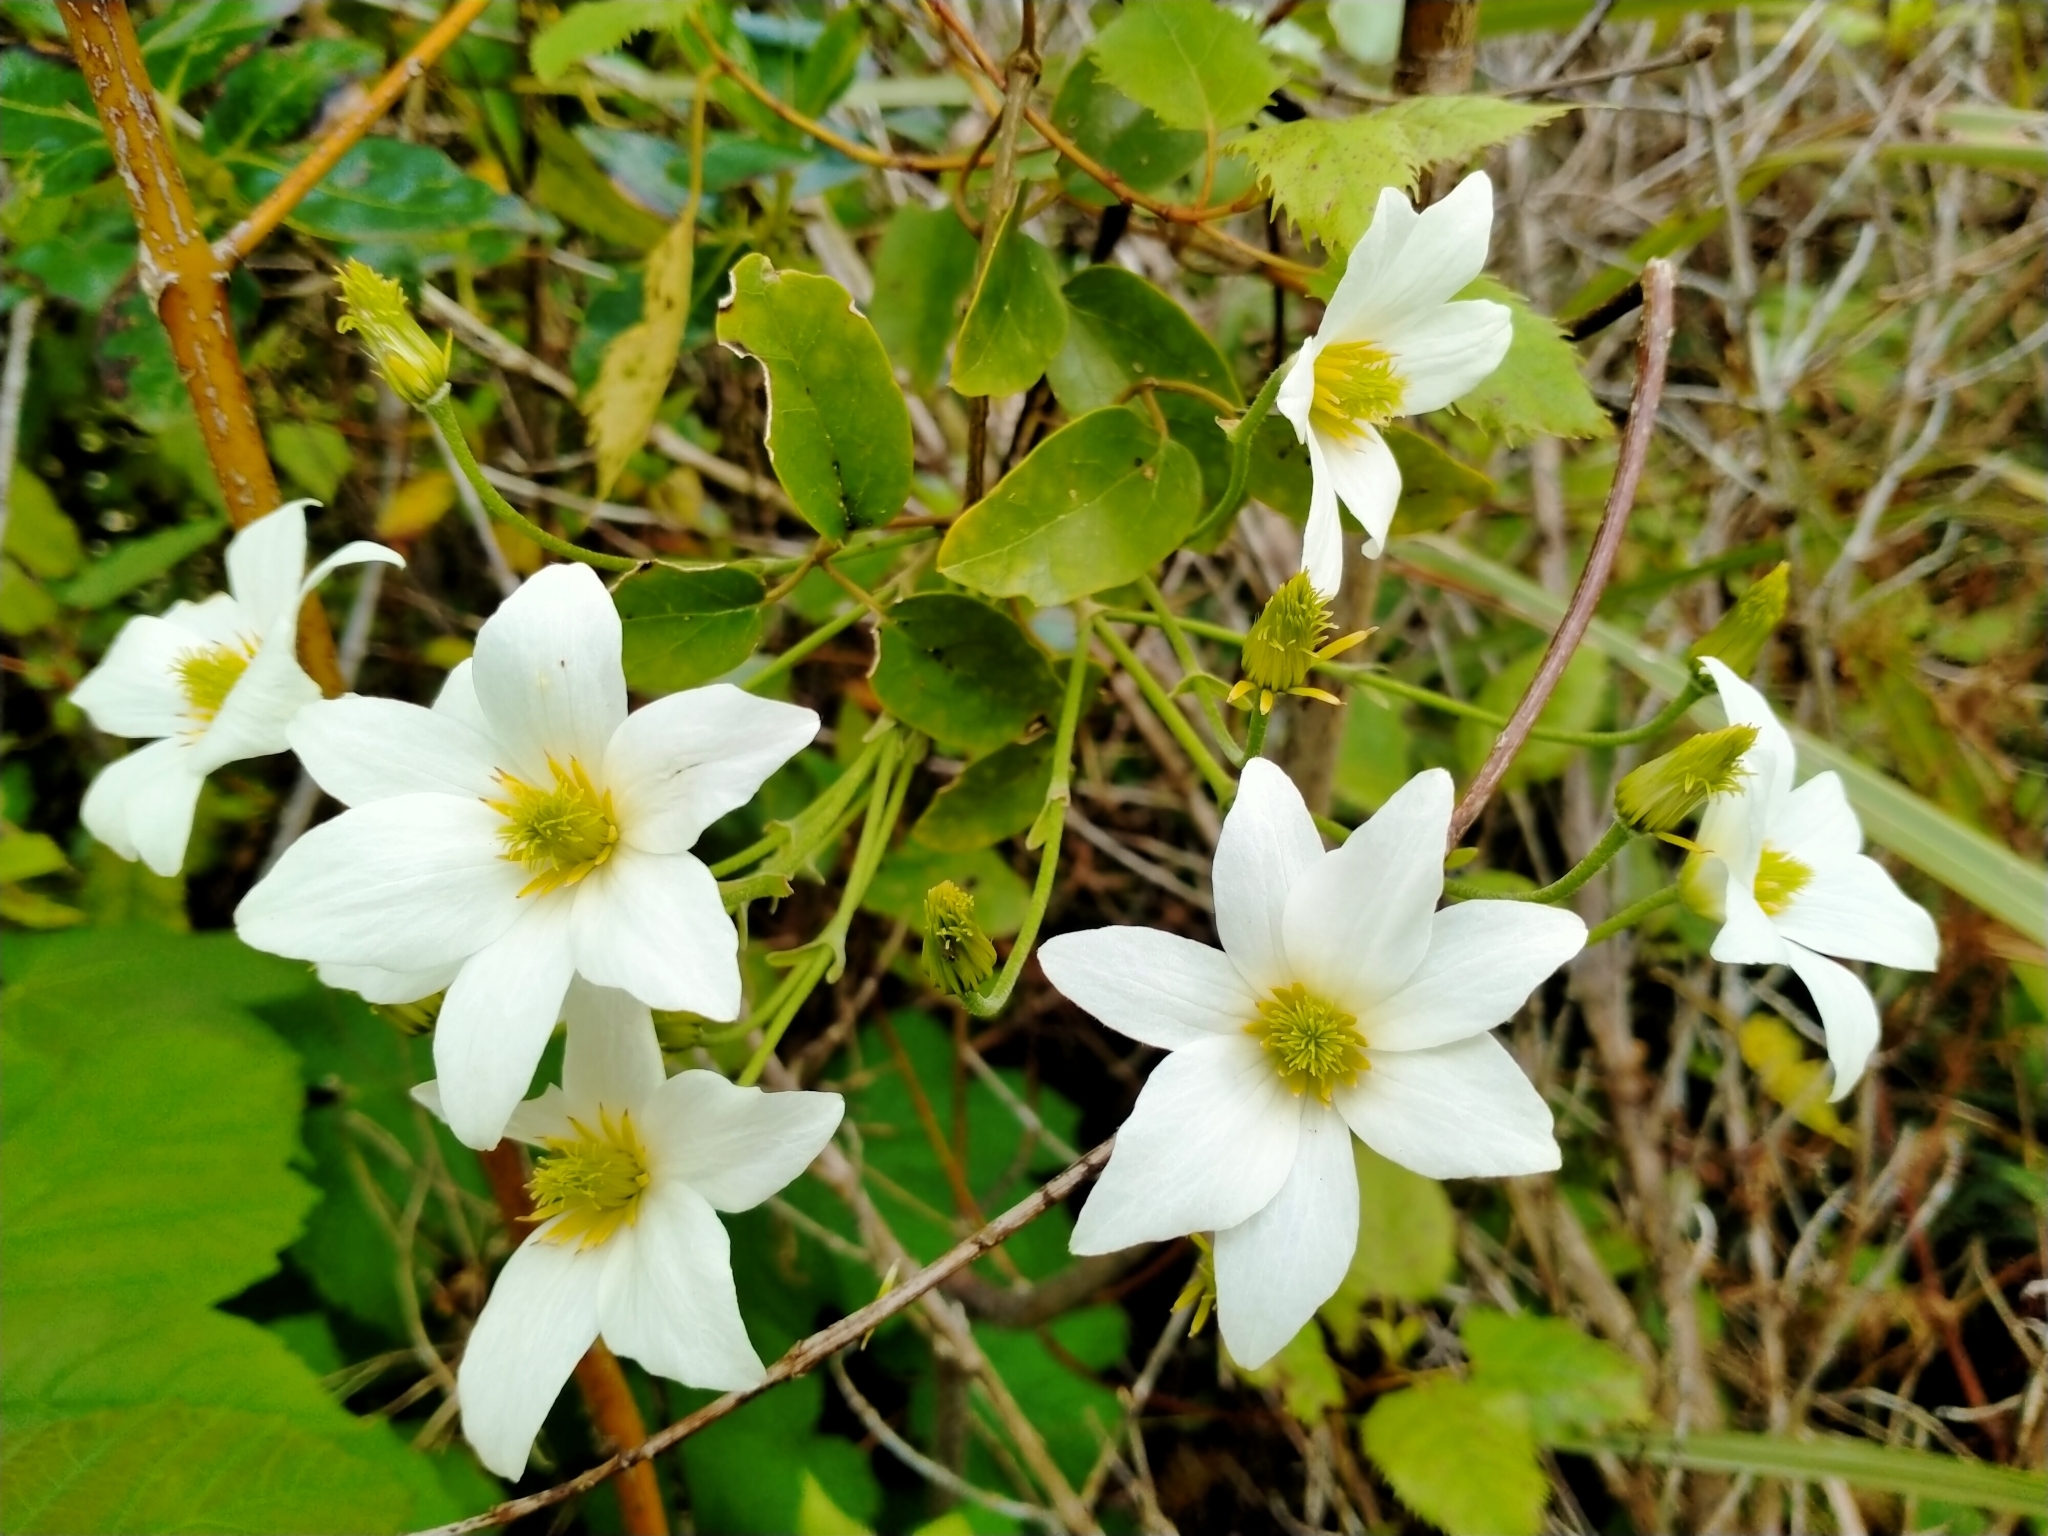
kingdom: Plantae
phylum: Tracheophyta
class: Magnoliopsida
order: Ranunculales
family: Ranunculaceae
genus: Clematis
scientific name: Clematis paniculata
